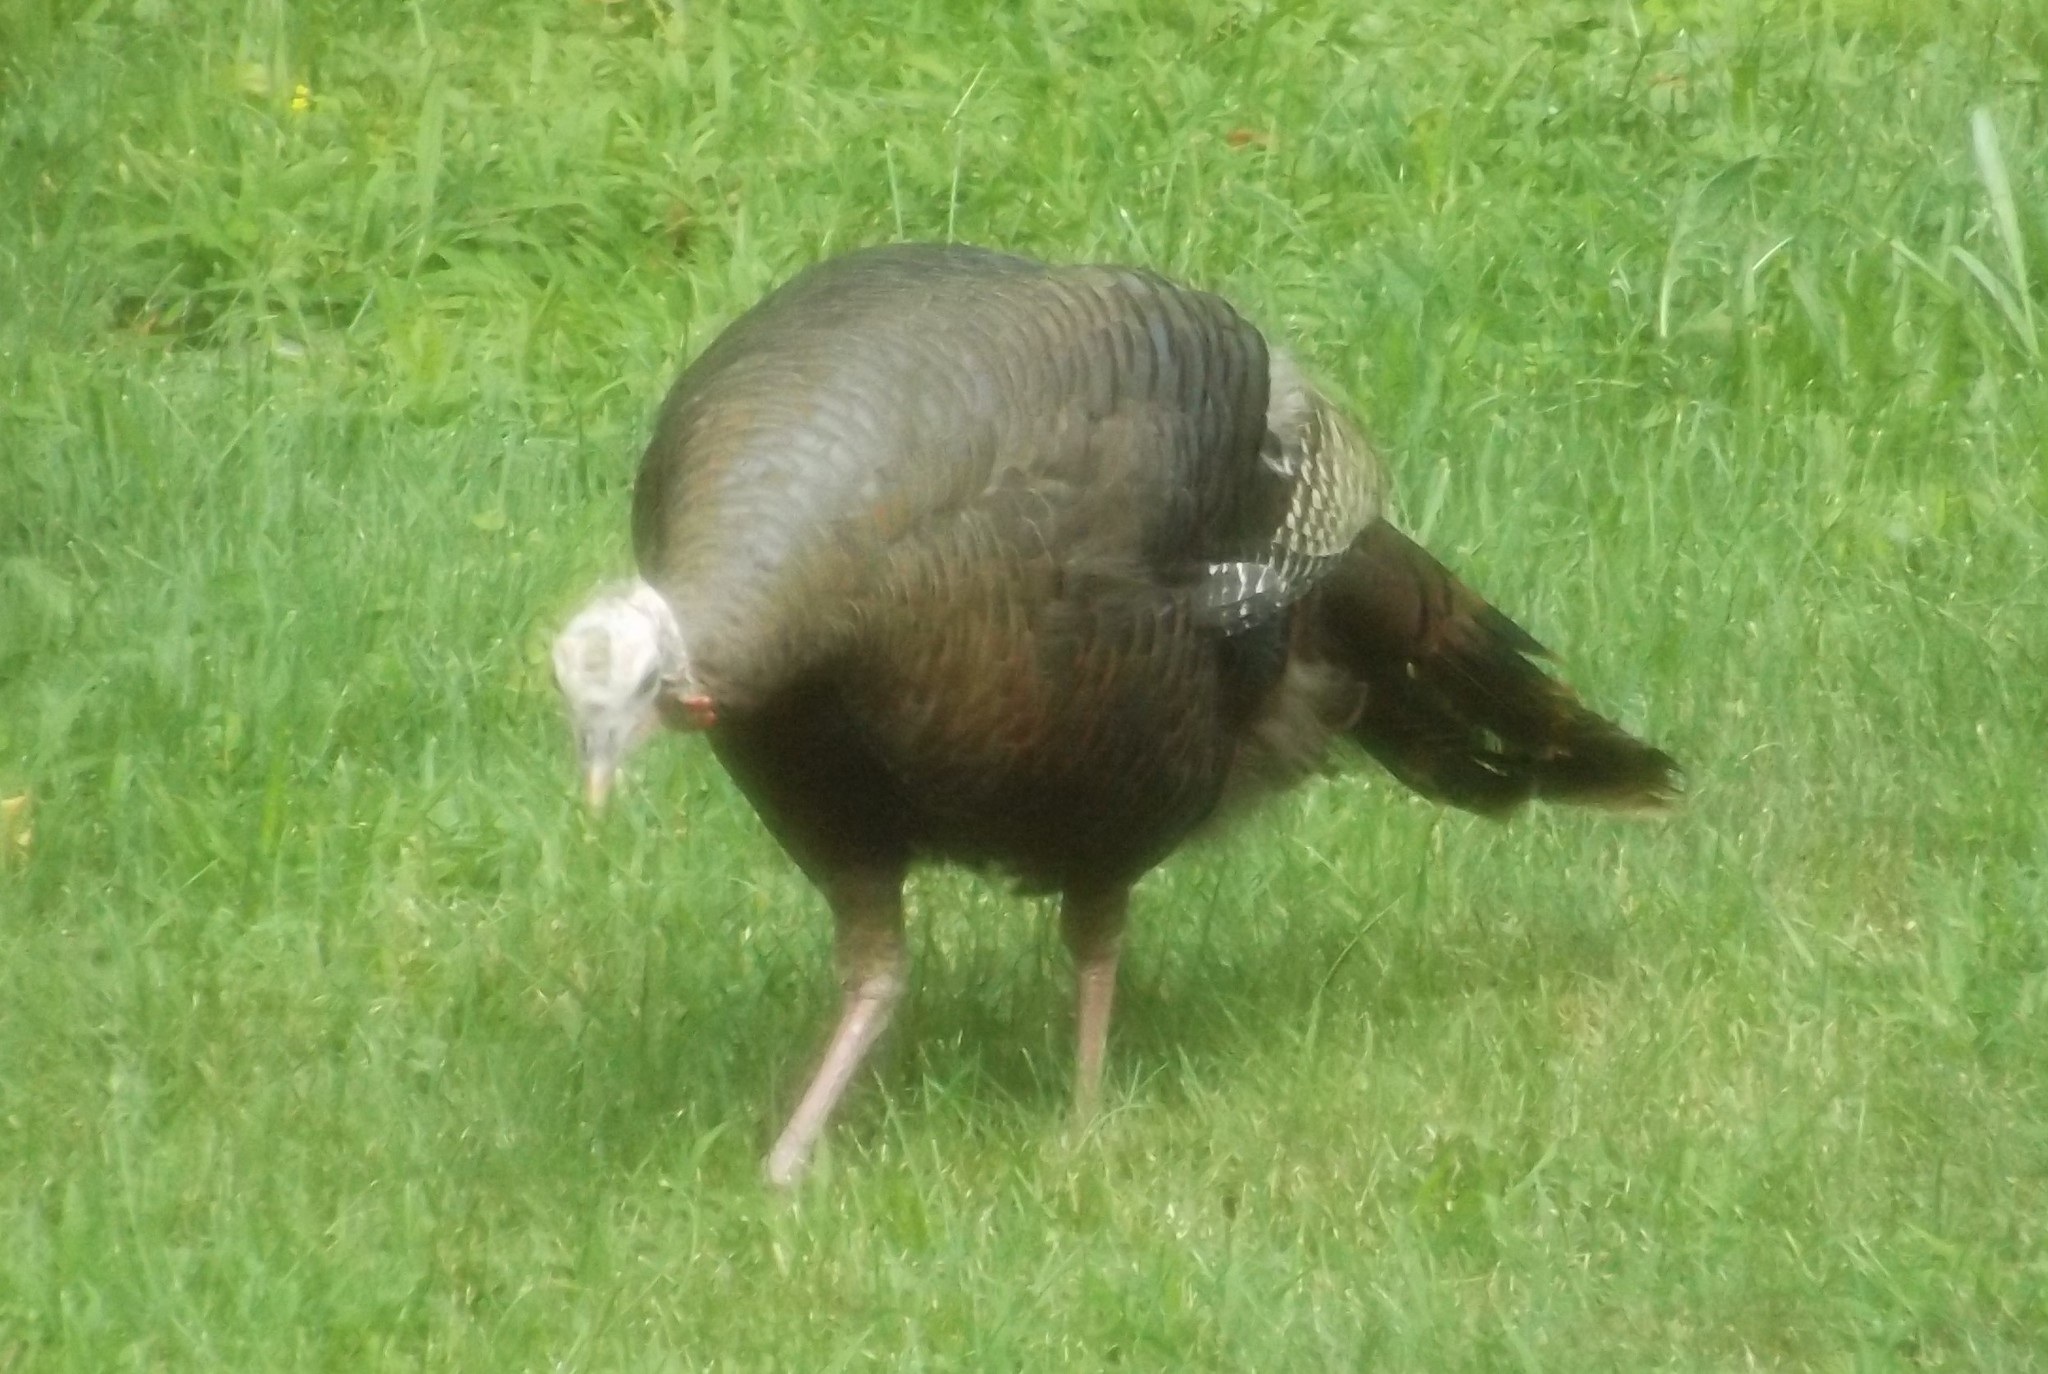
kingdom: Animalia
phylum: Chordata
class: Aves
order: Galliformes
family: Phasianidae
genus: Meleagris
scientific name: Meleagris gallopavo
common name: Wild turkey
